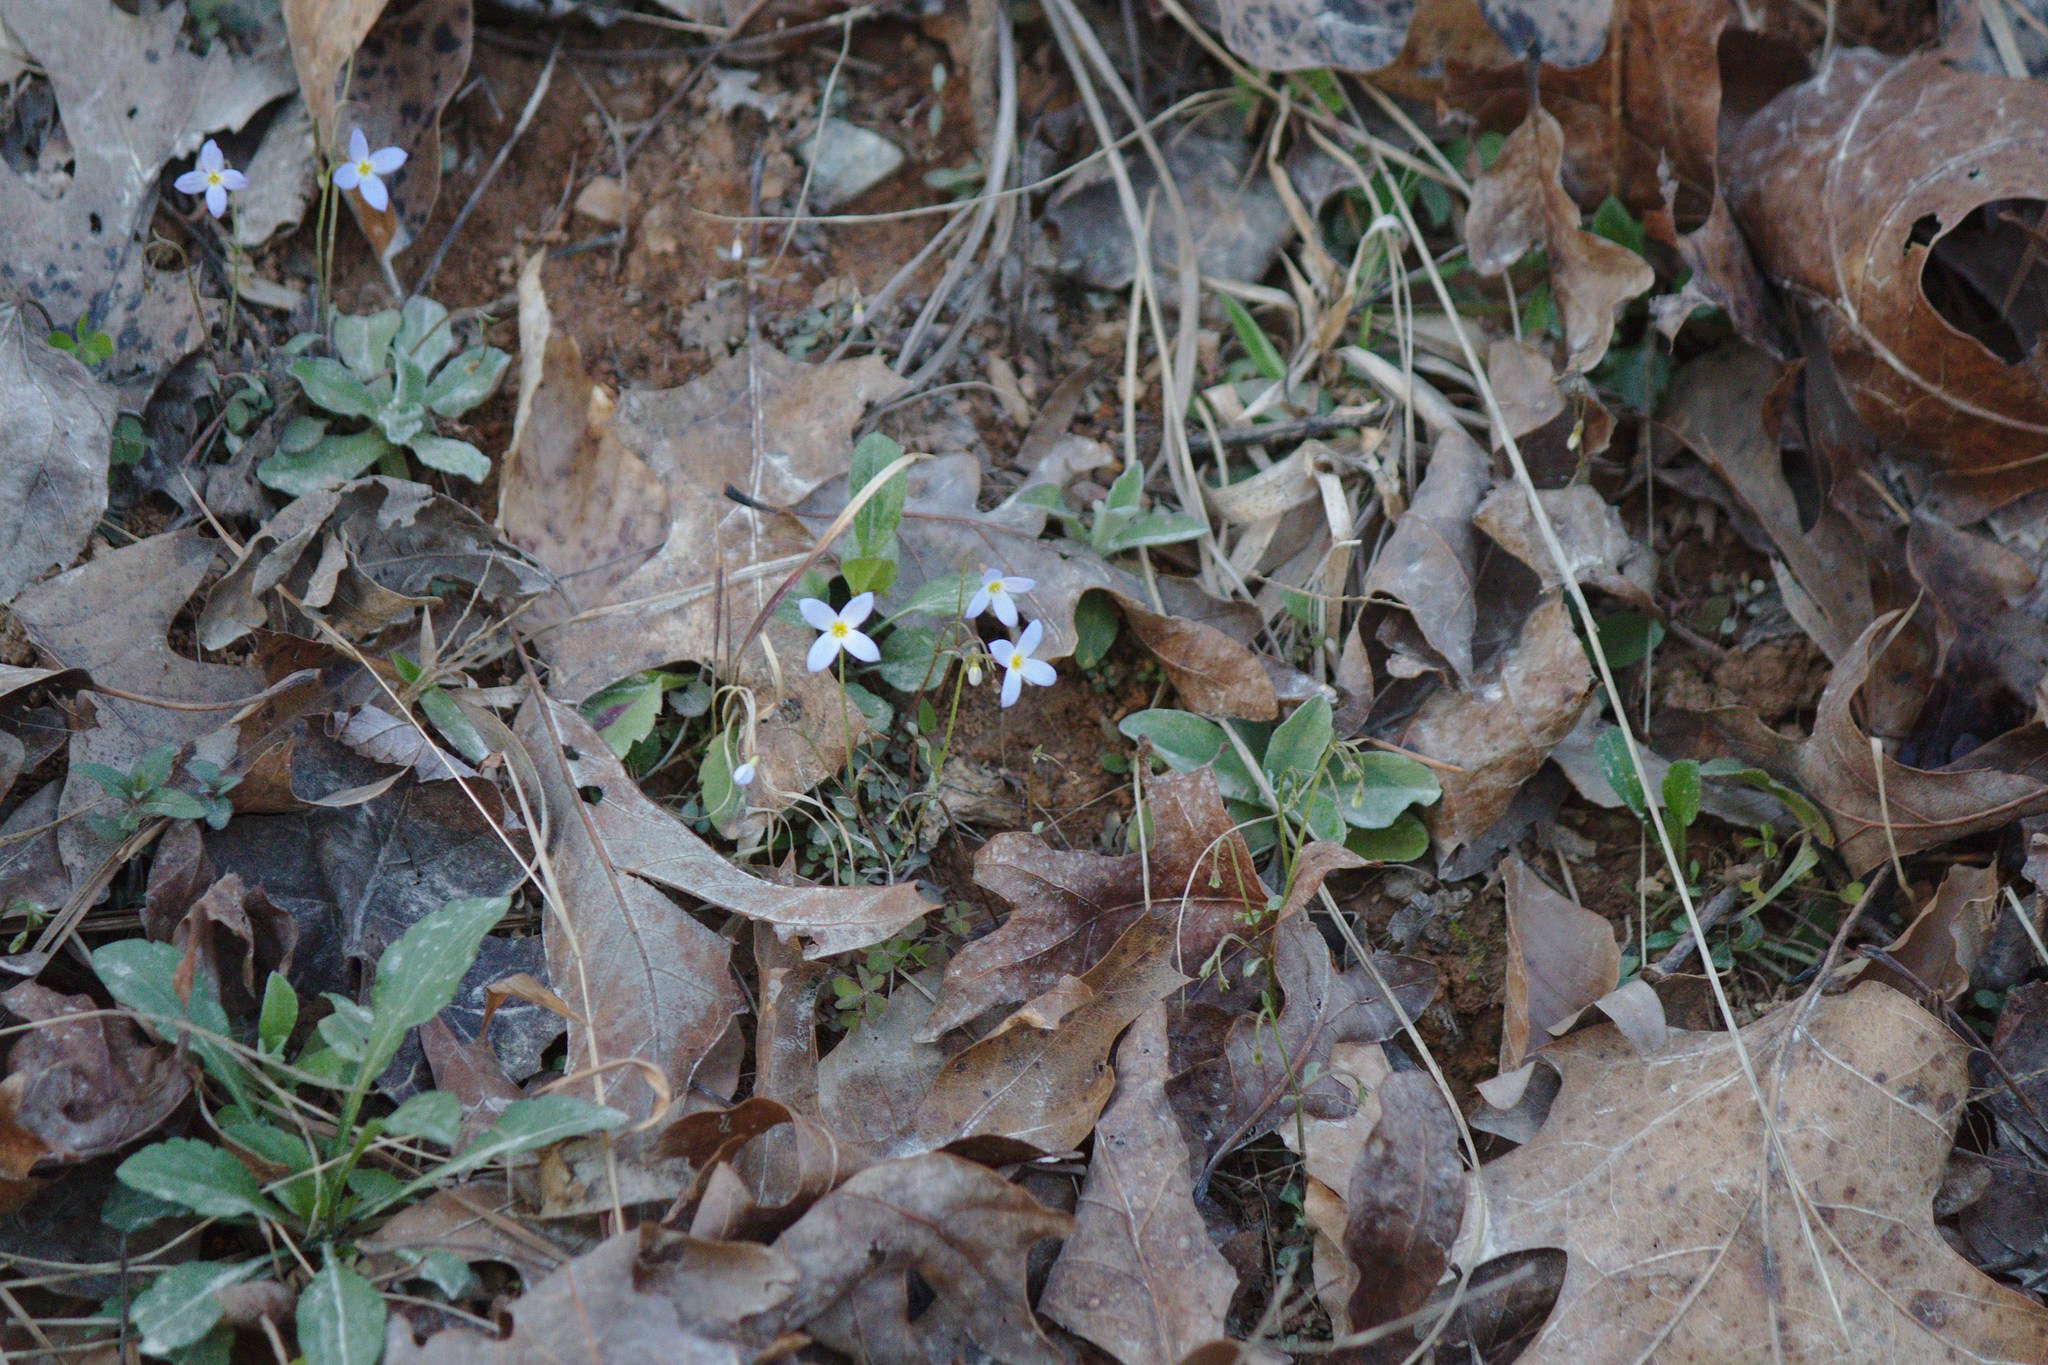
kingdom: Plantae
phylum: Tracheophyta
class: Magnoliopsida
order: Gentianales
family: Rubiaceae
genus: Houstonia
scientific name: Houstonia caerulea
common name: Bluets
